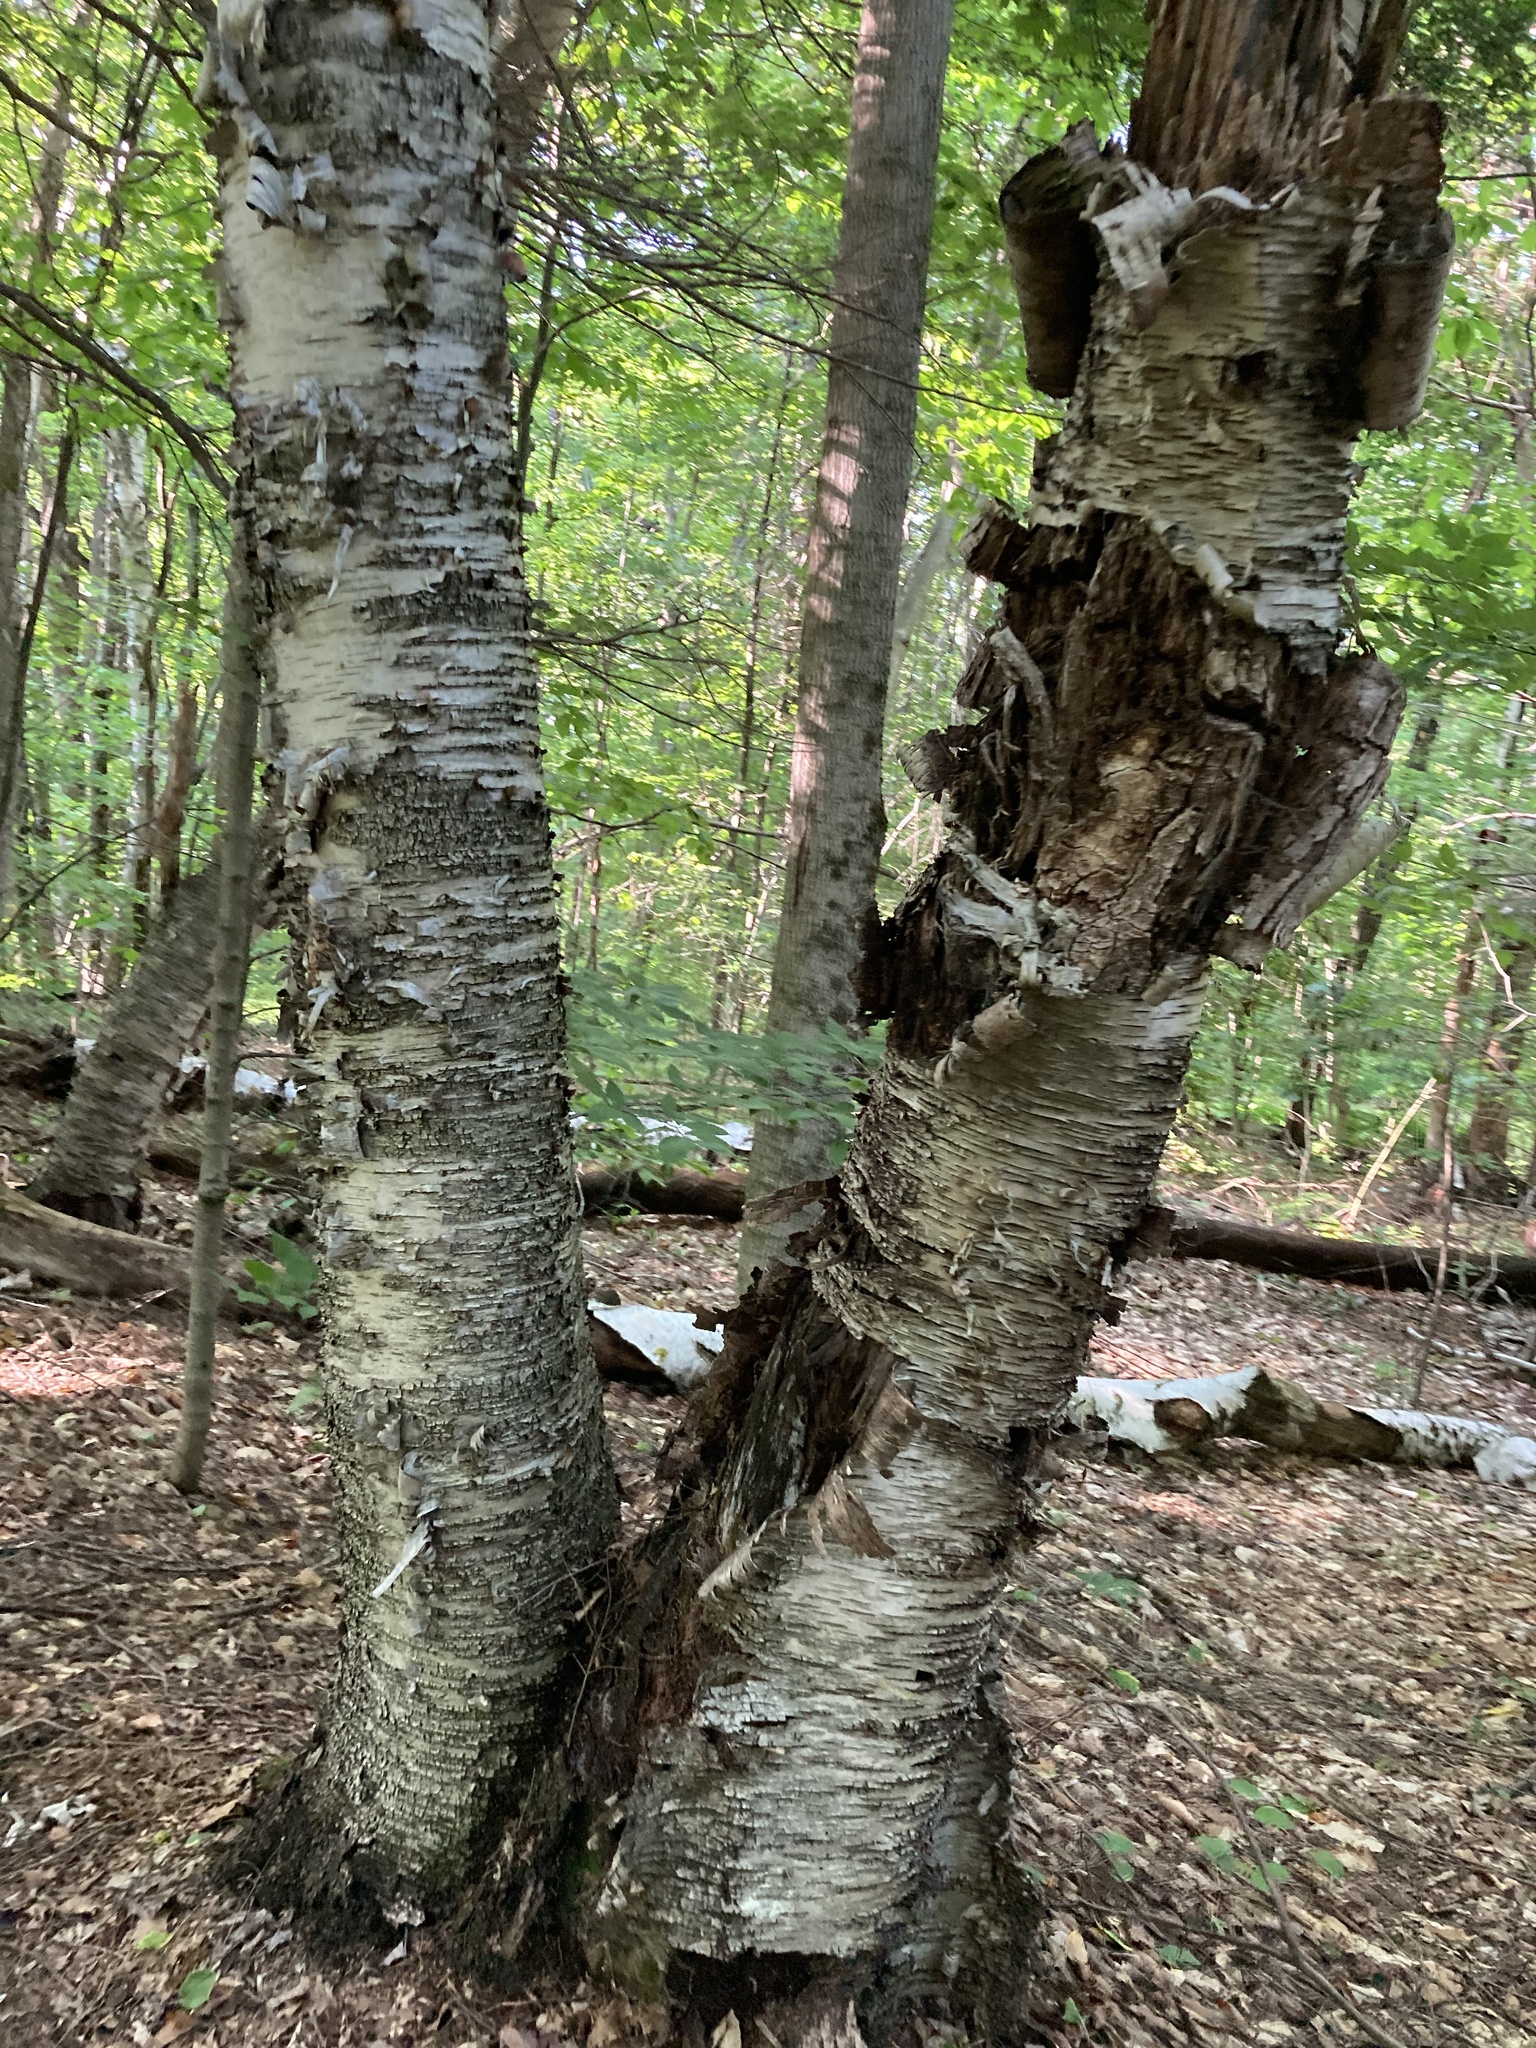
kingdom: Plantae
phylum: Tracheophyta
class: Magnoliopsida
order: Fagales
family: Betulaceae
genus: Betula
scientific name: Betula alleghaniensis
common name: Yellow birch
